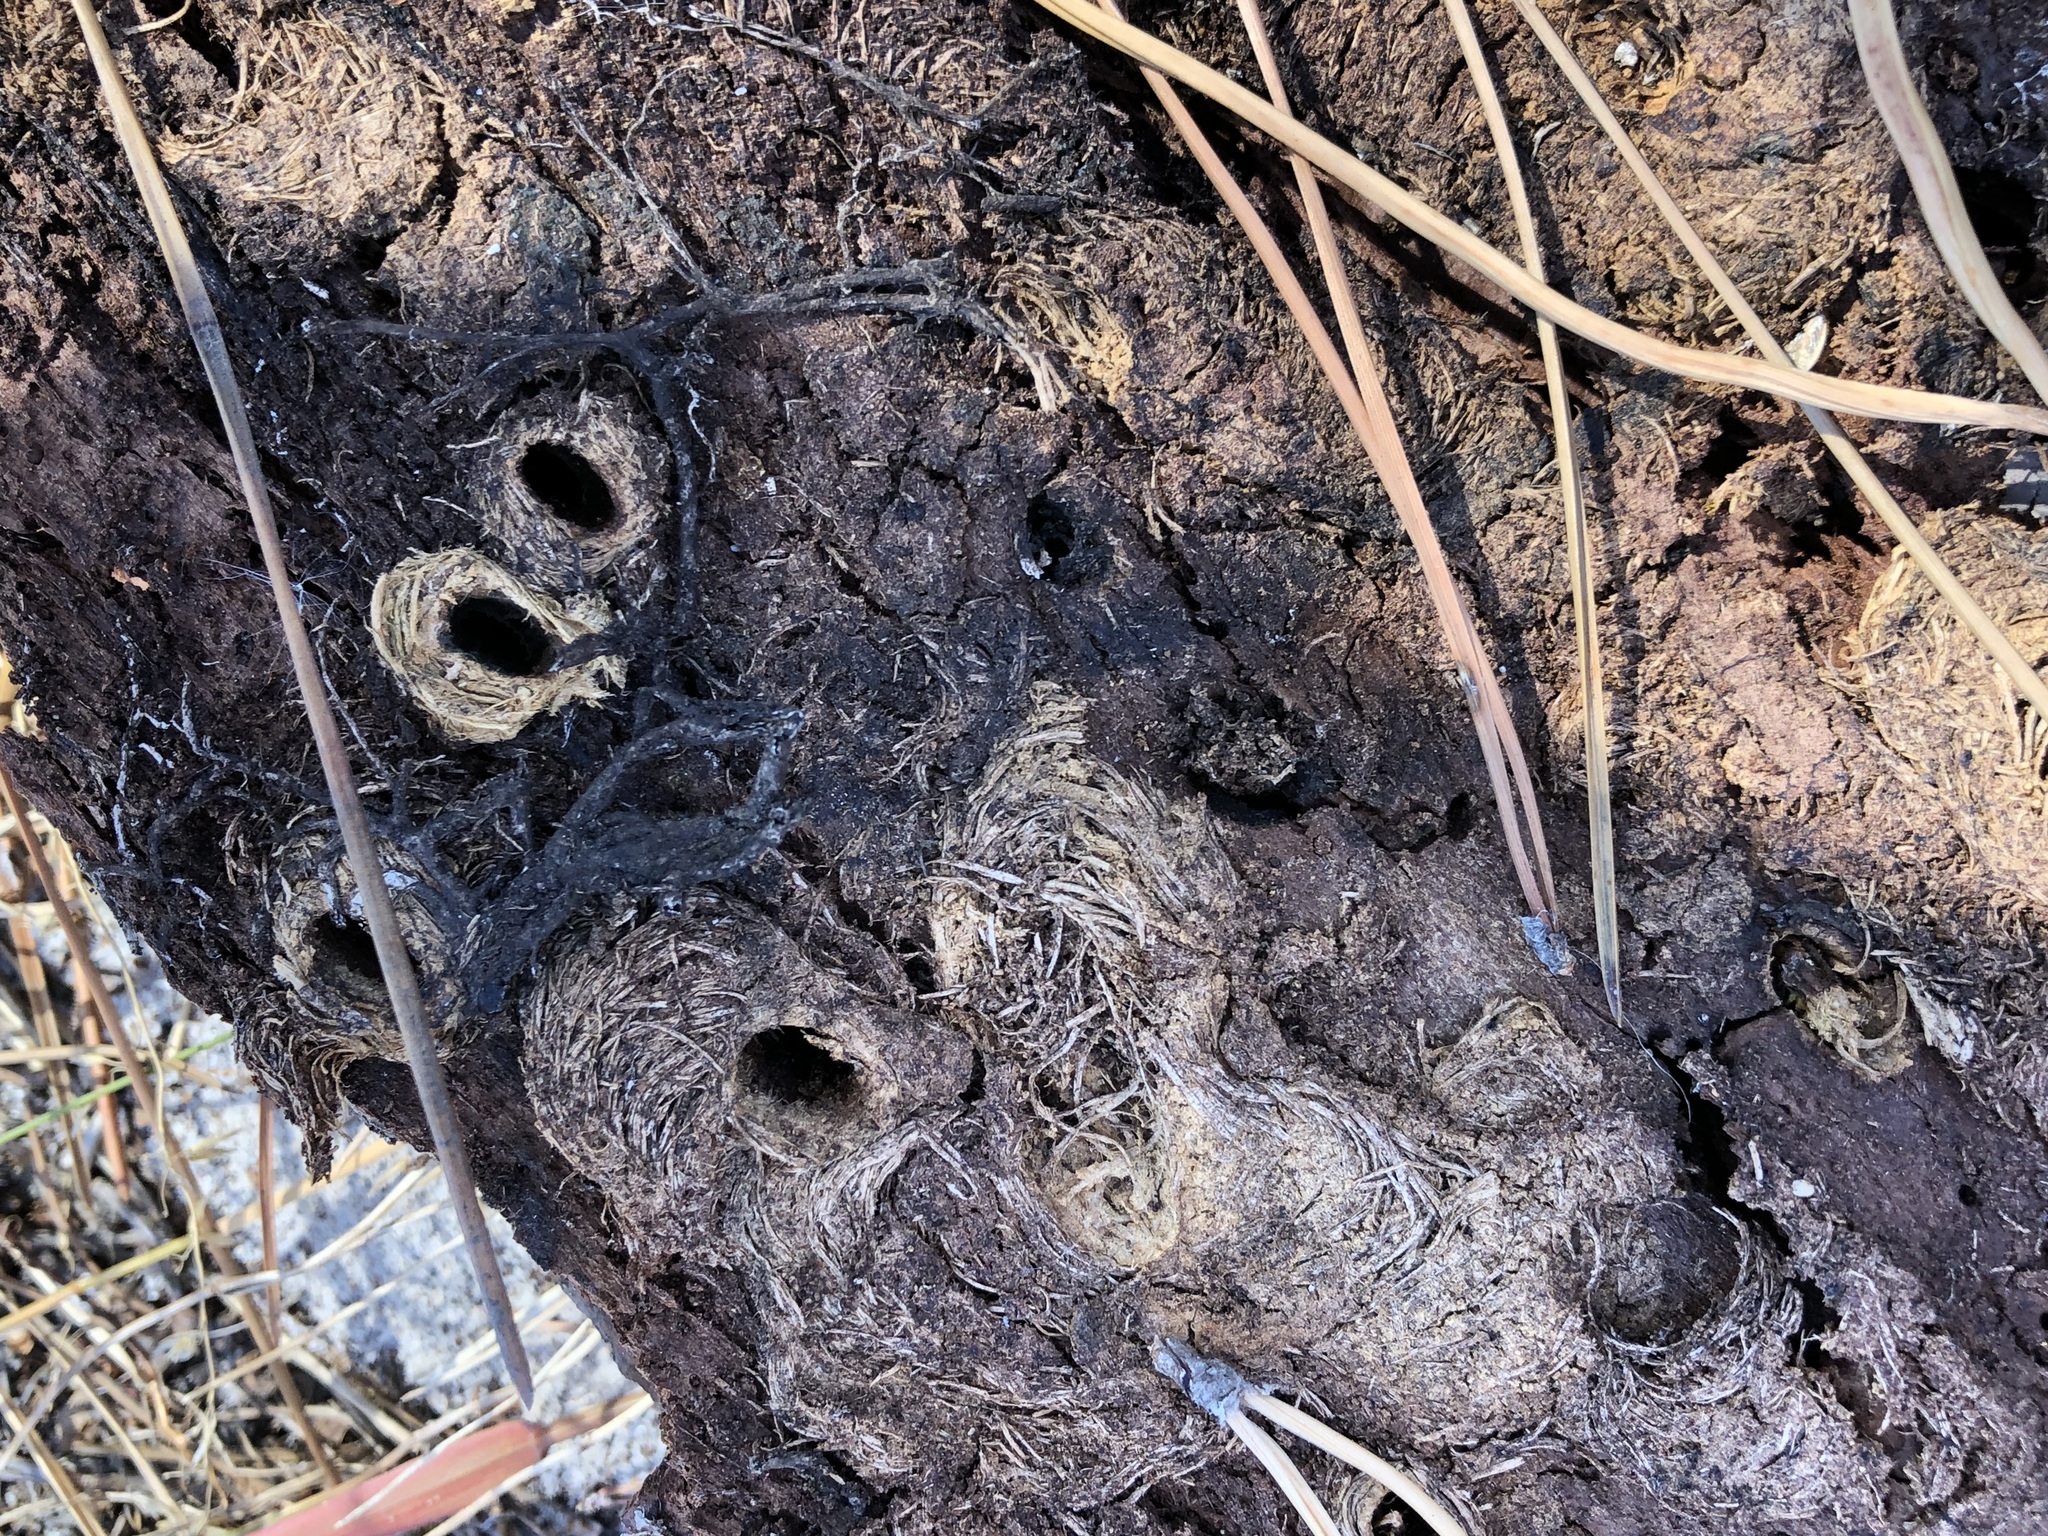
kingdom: Animalia
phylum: Arthropoda
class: Insecta
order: Coleoptera
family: Curculionidae
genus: Pissodes
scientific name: Pissodes
